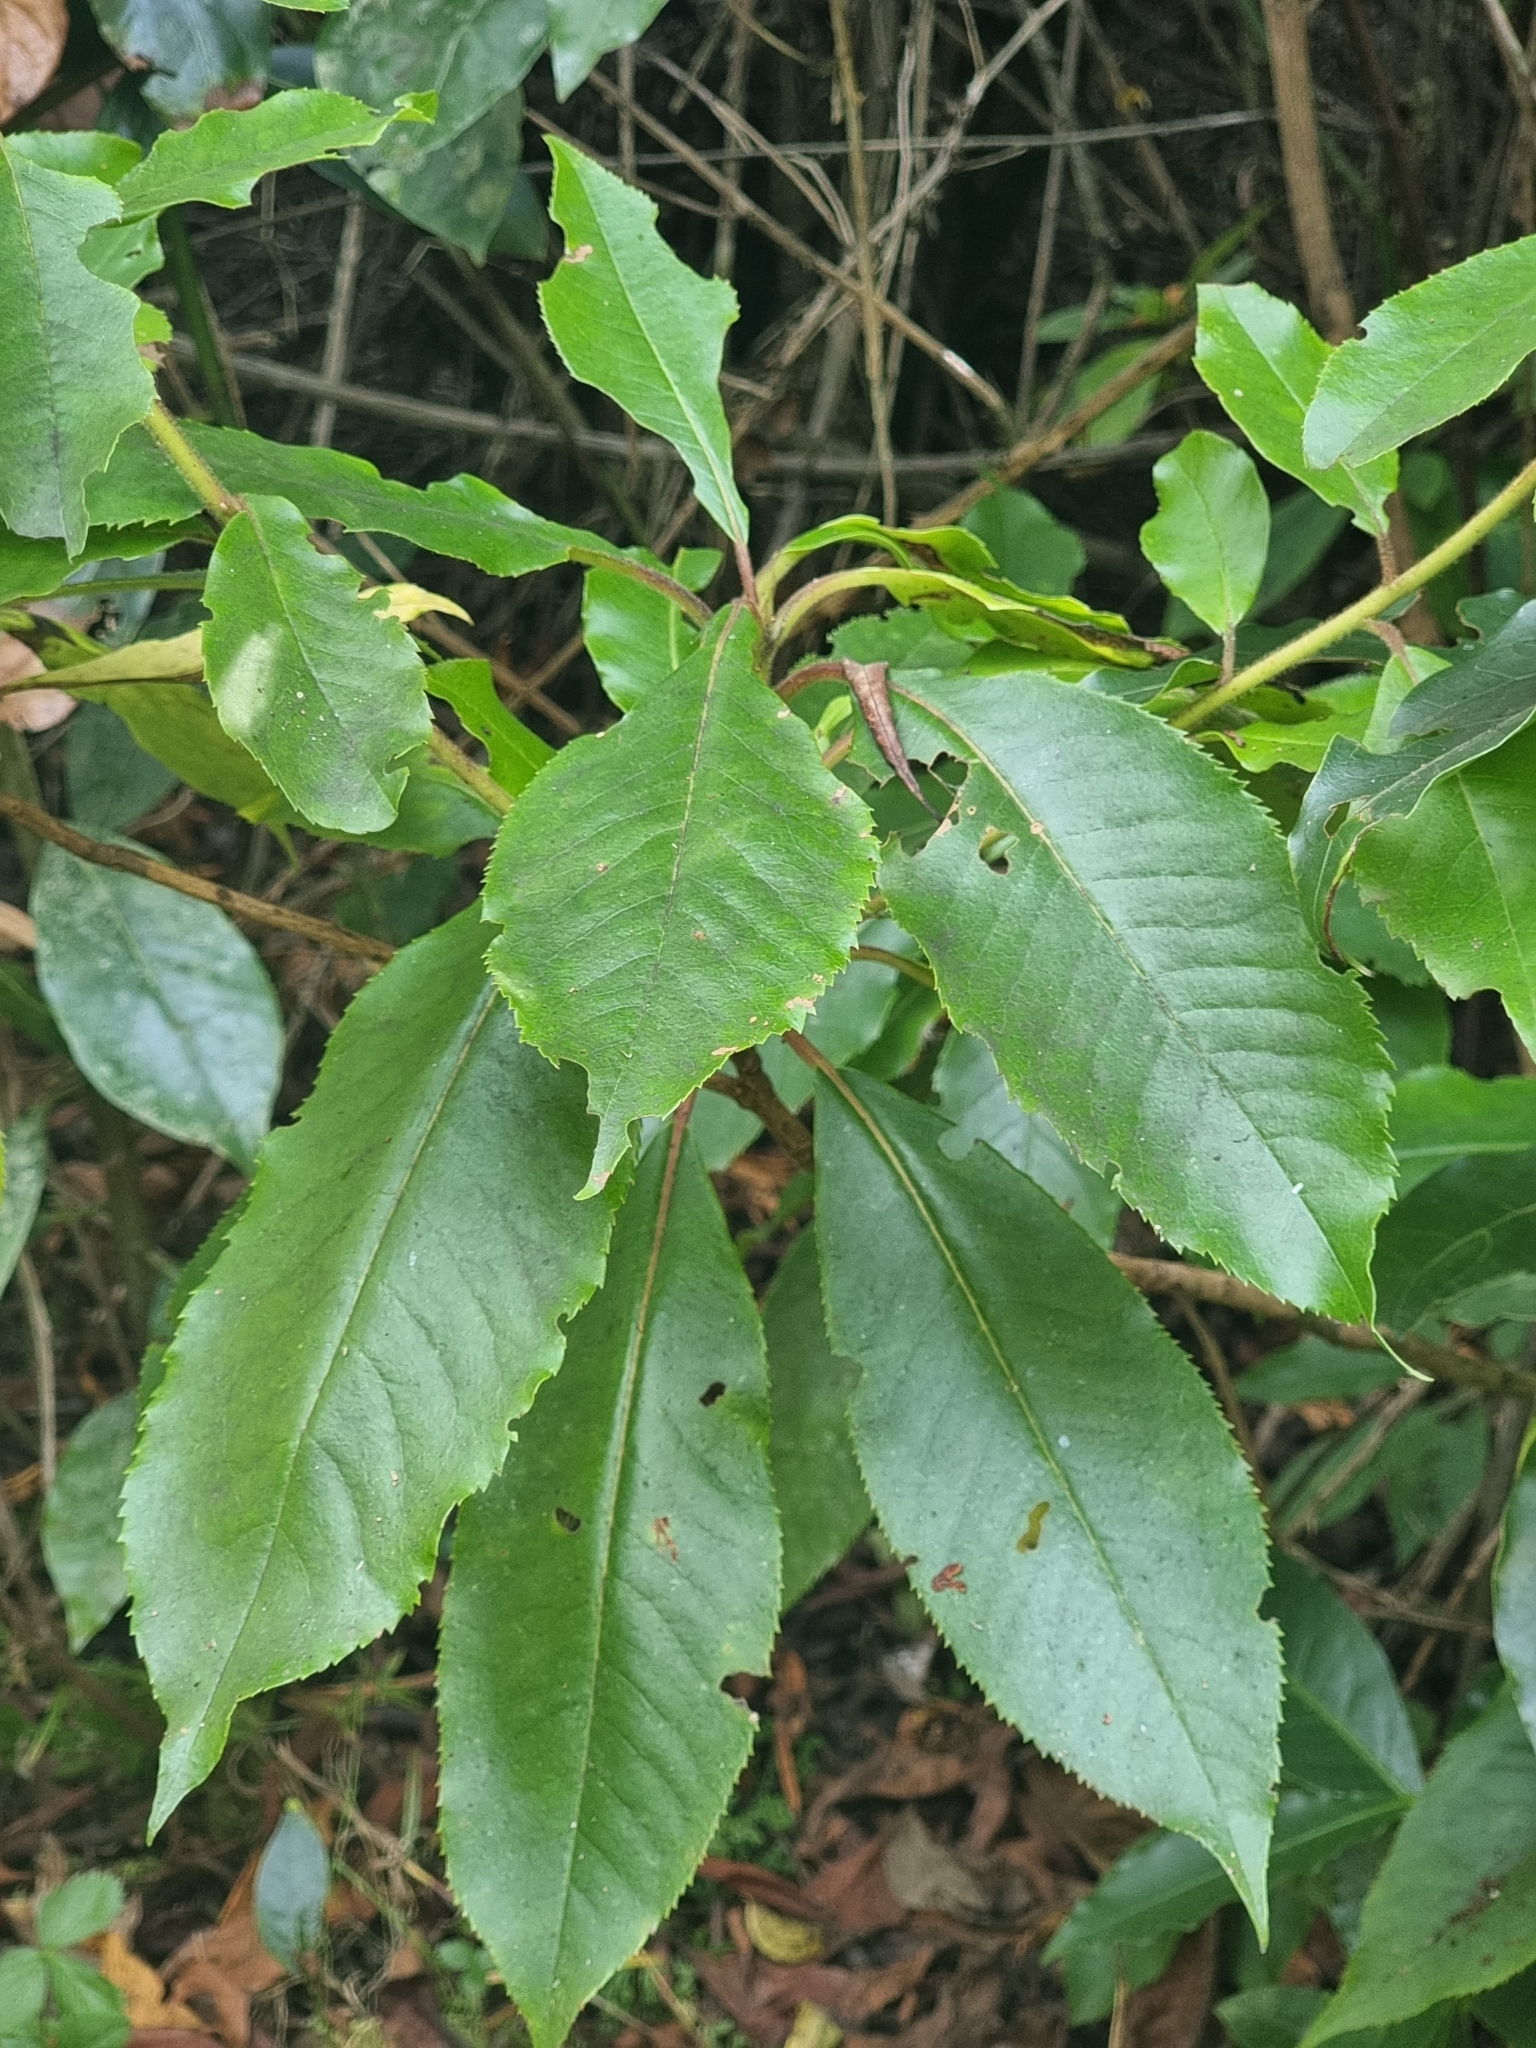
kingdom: Plantae
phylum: Tracheophyta
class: Magnoliopsida
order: Ericales
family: Clethraceae
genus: Clethra
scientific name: Clethra arborea
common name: Lily-of-the-valley-tree
